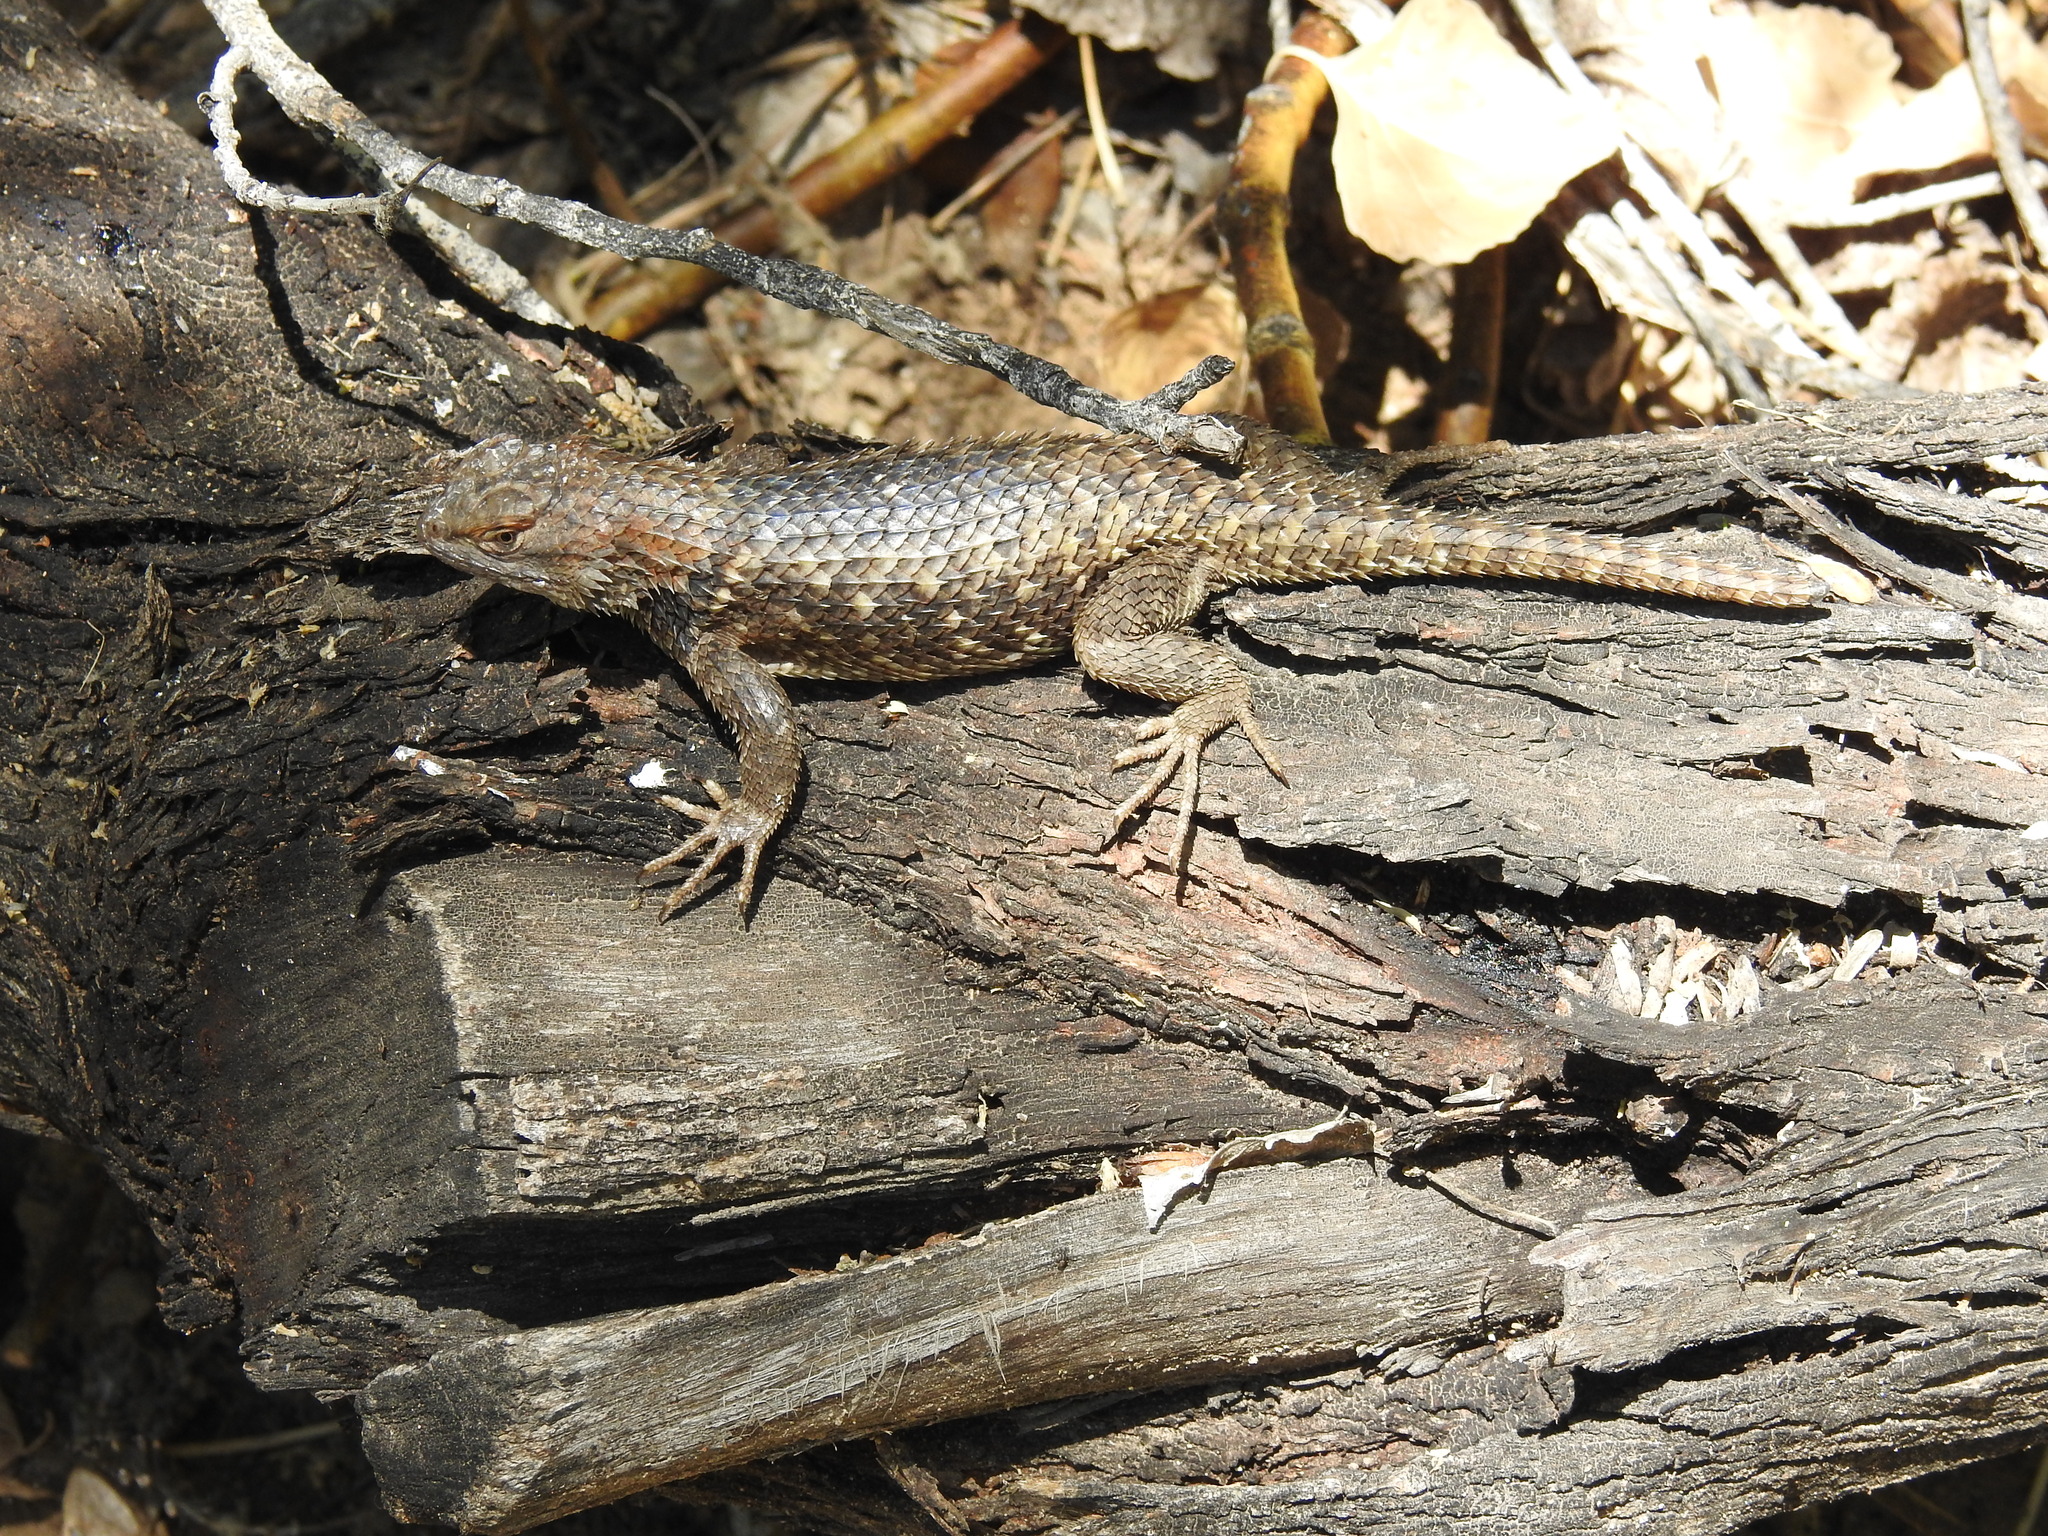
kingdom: Animalia
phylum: Chordata
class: Squamata
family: Phrynosomatidae
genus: Sceloporus
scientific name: Sceloporus magister
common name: Desert spiny lizard
